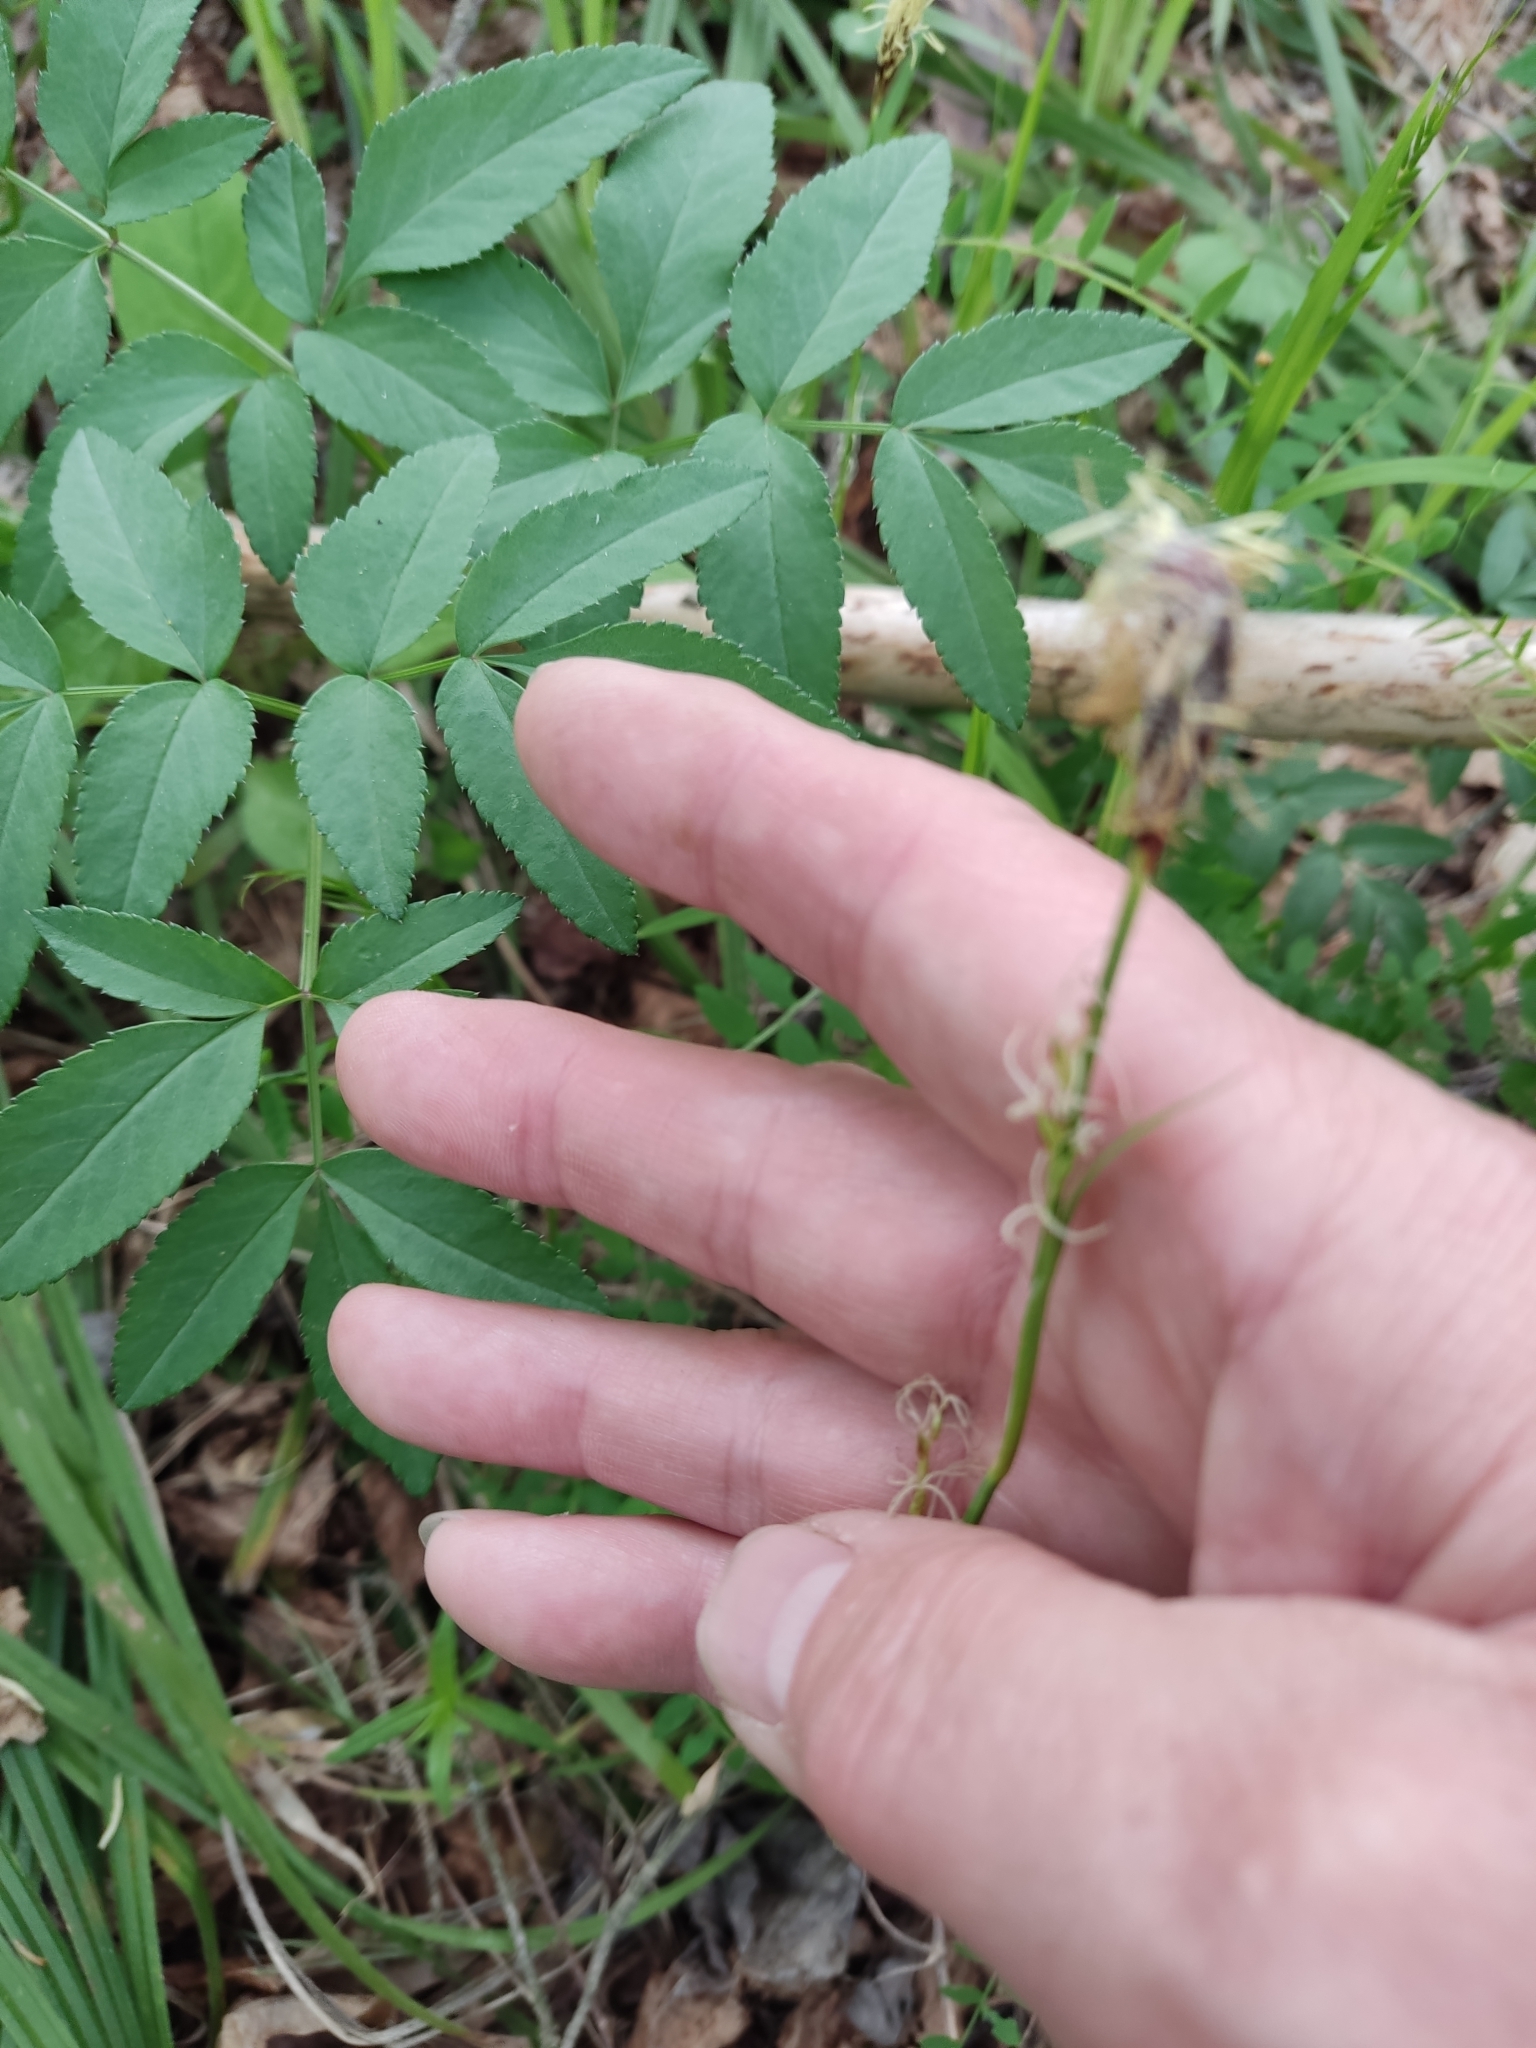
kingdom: Plantae
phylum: Tracheophyta
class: Liliopsida
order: Poales
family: Cyperaceae
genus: Carex
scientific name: Carex pilosa
